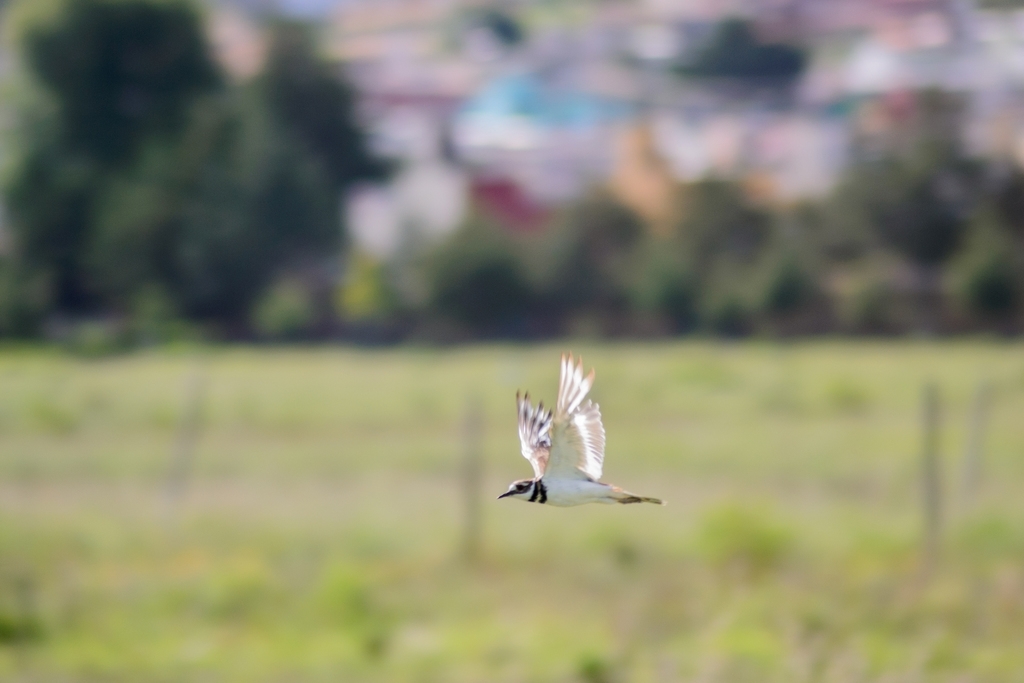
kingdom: Animalia
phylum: Chordata
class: Aves
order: Charadriiformes
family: Charadriidae
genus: Charadrius
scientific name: Charadrius vociferus
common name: Killdeer
